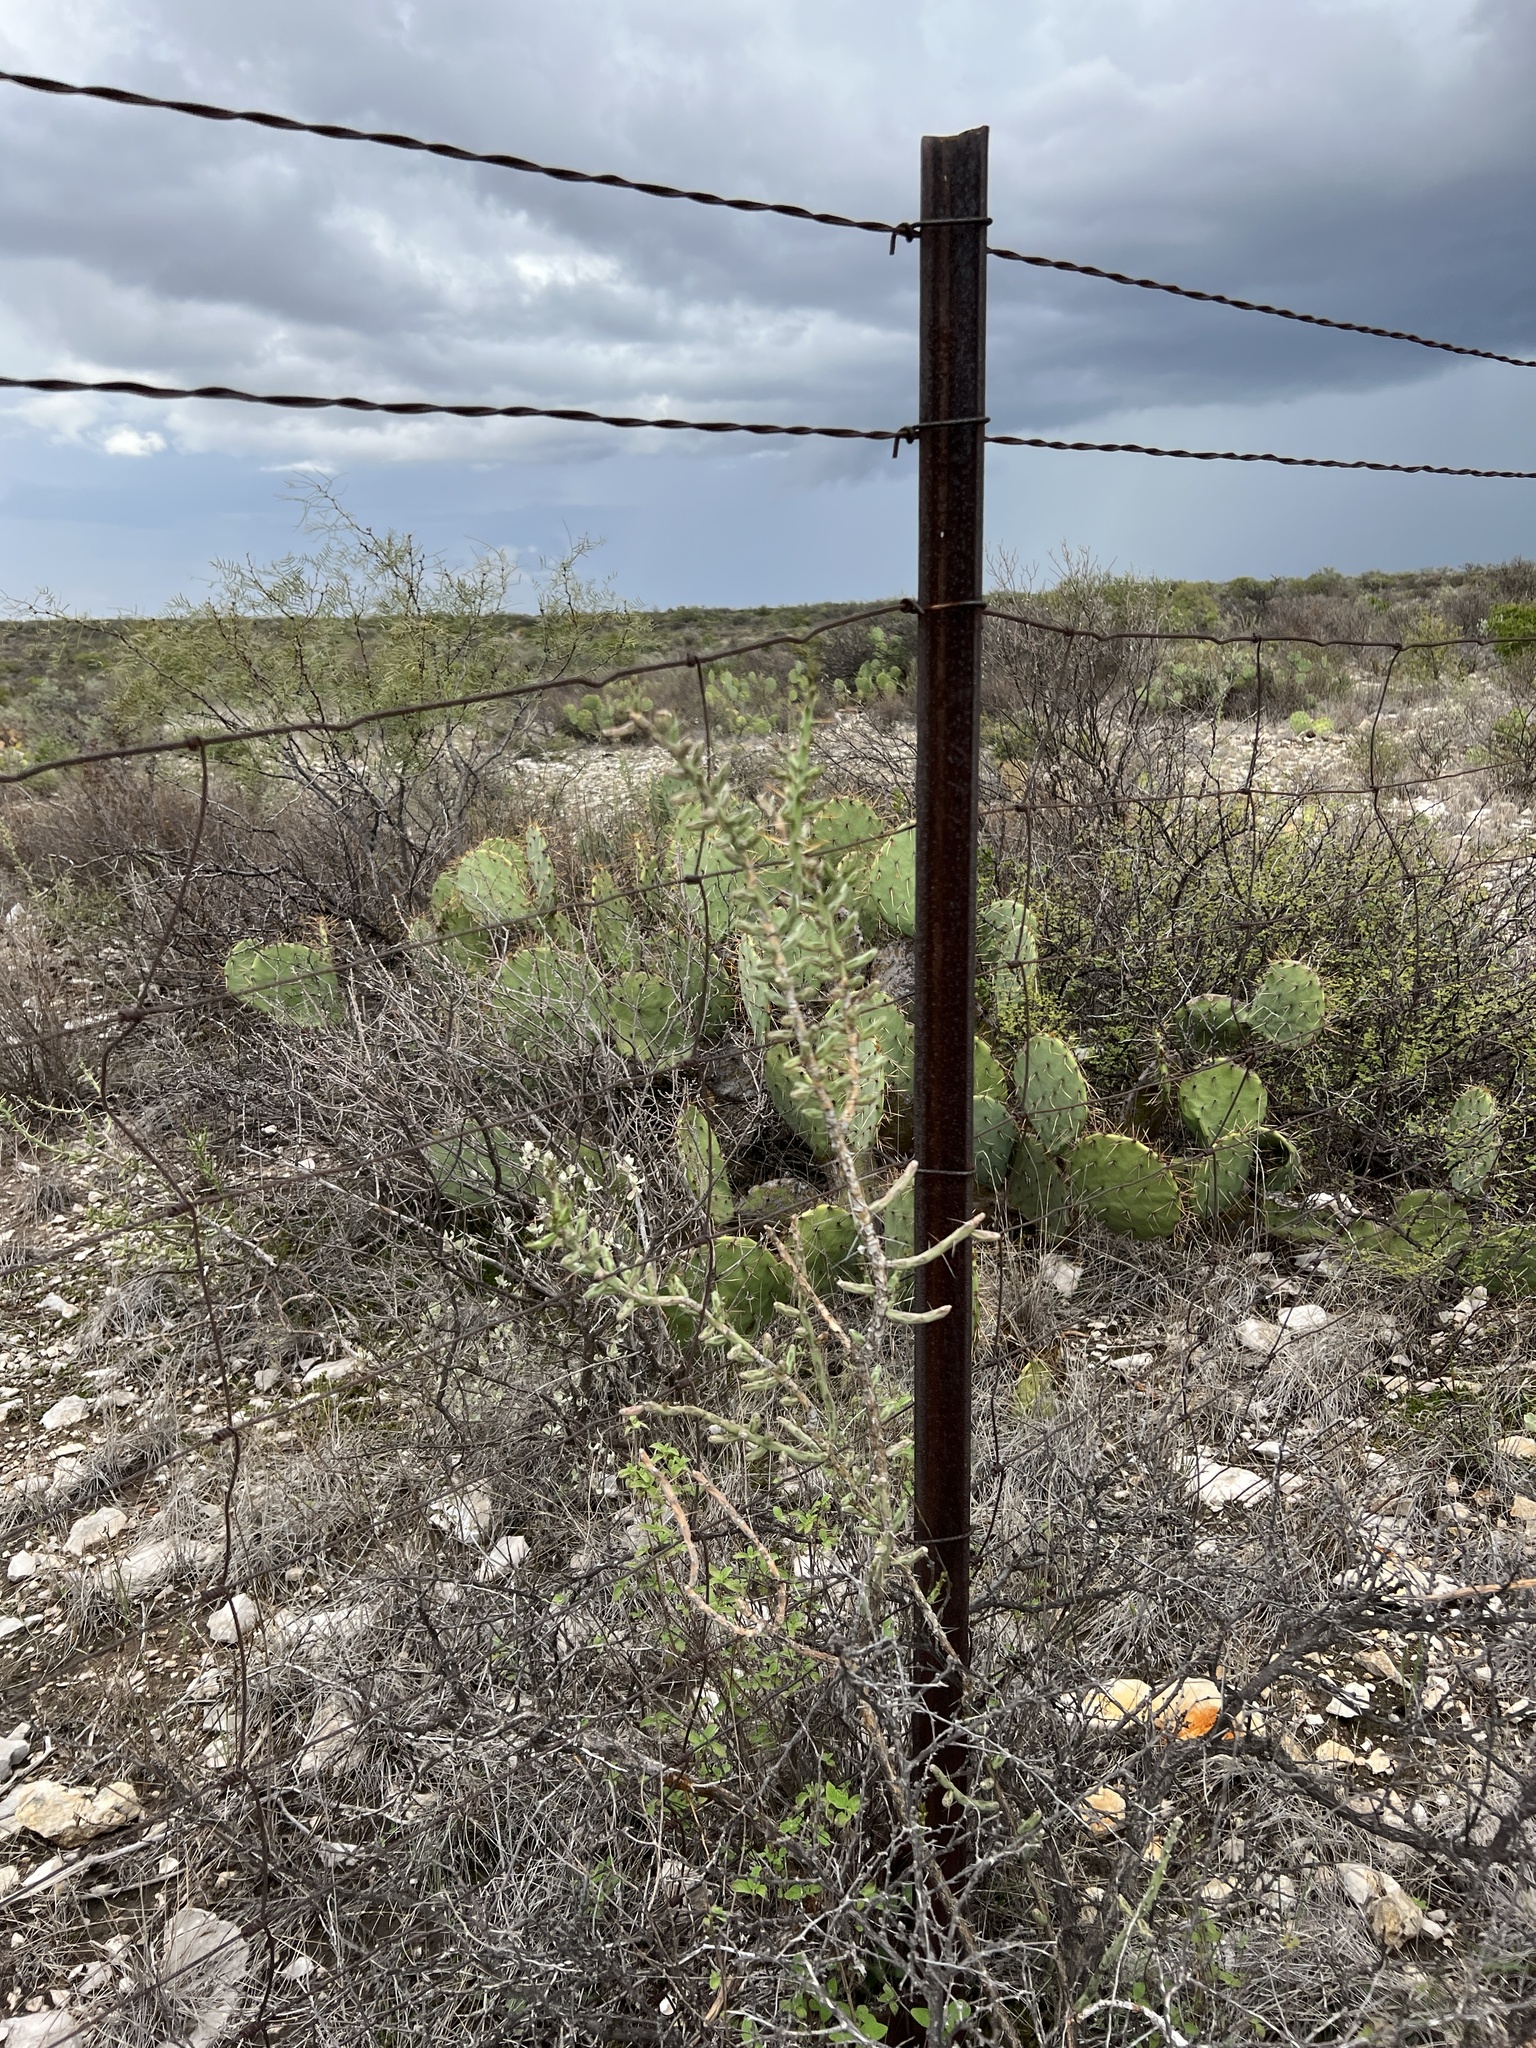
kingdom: Plantae
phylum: Tracheophyta
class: Magnoliopsida
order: Caryophyllales
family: Cactaceae
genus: Cylindropuntia
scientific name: Cylindropuntia leptocaulis
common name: Christmas cactus
